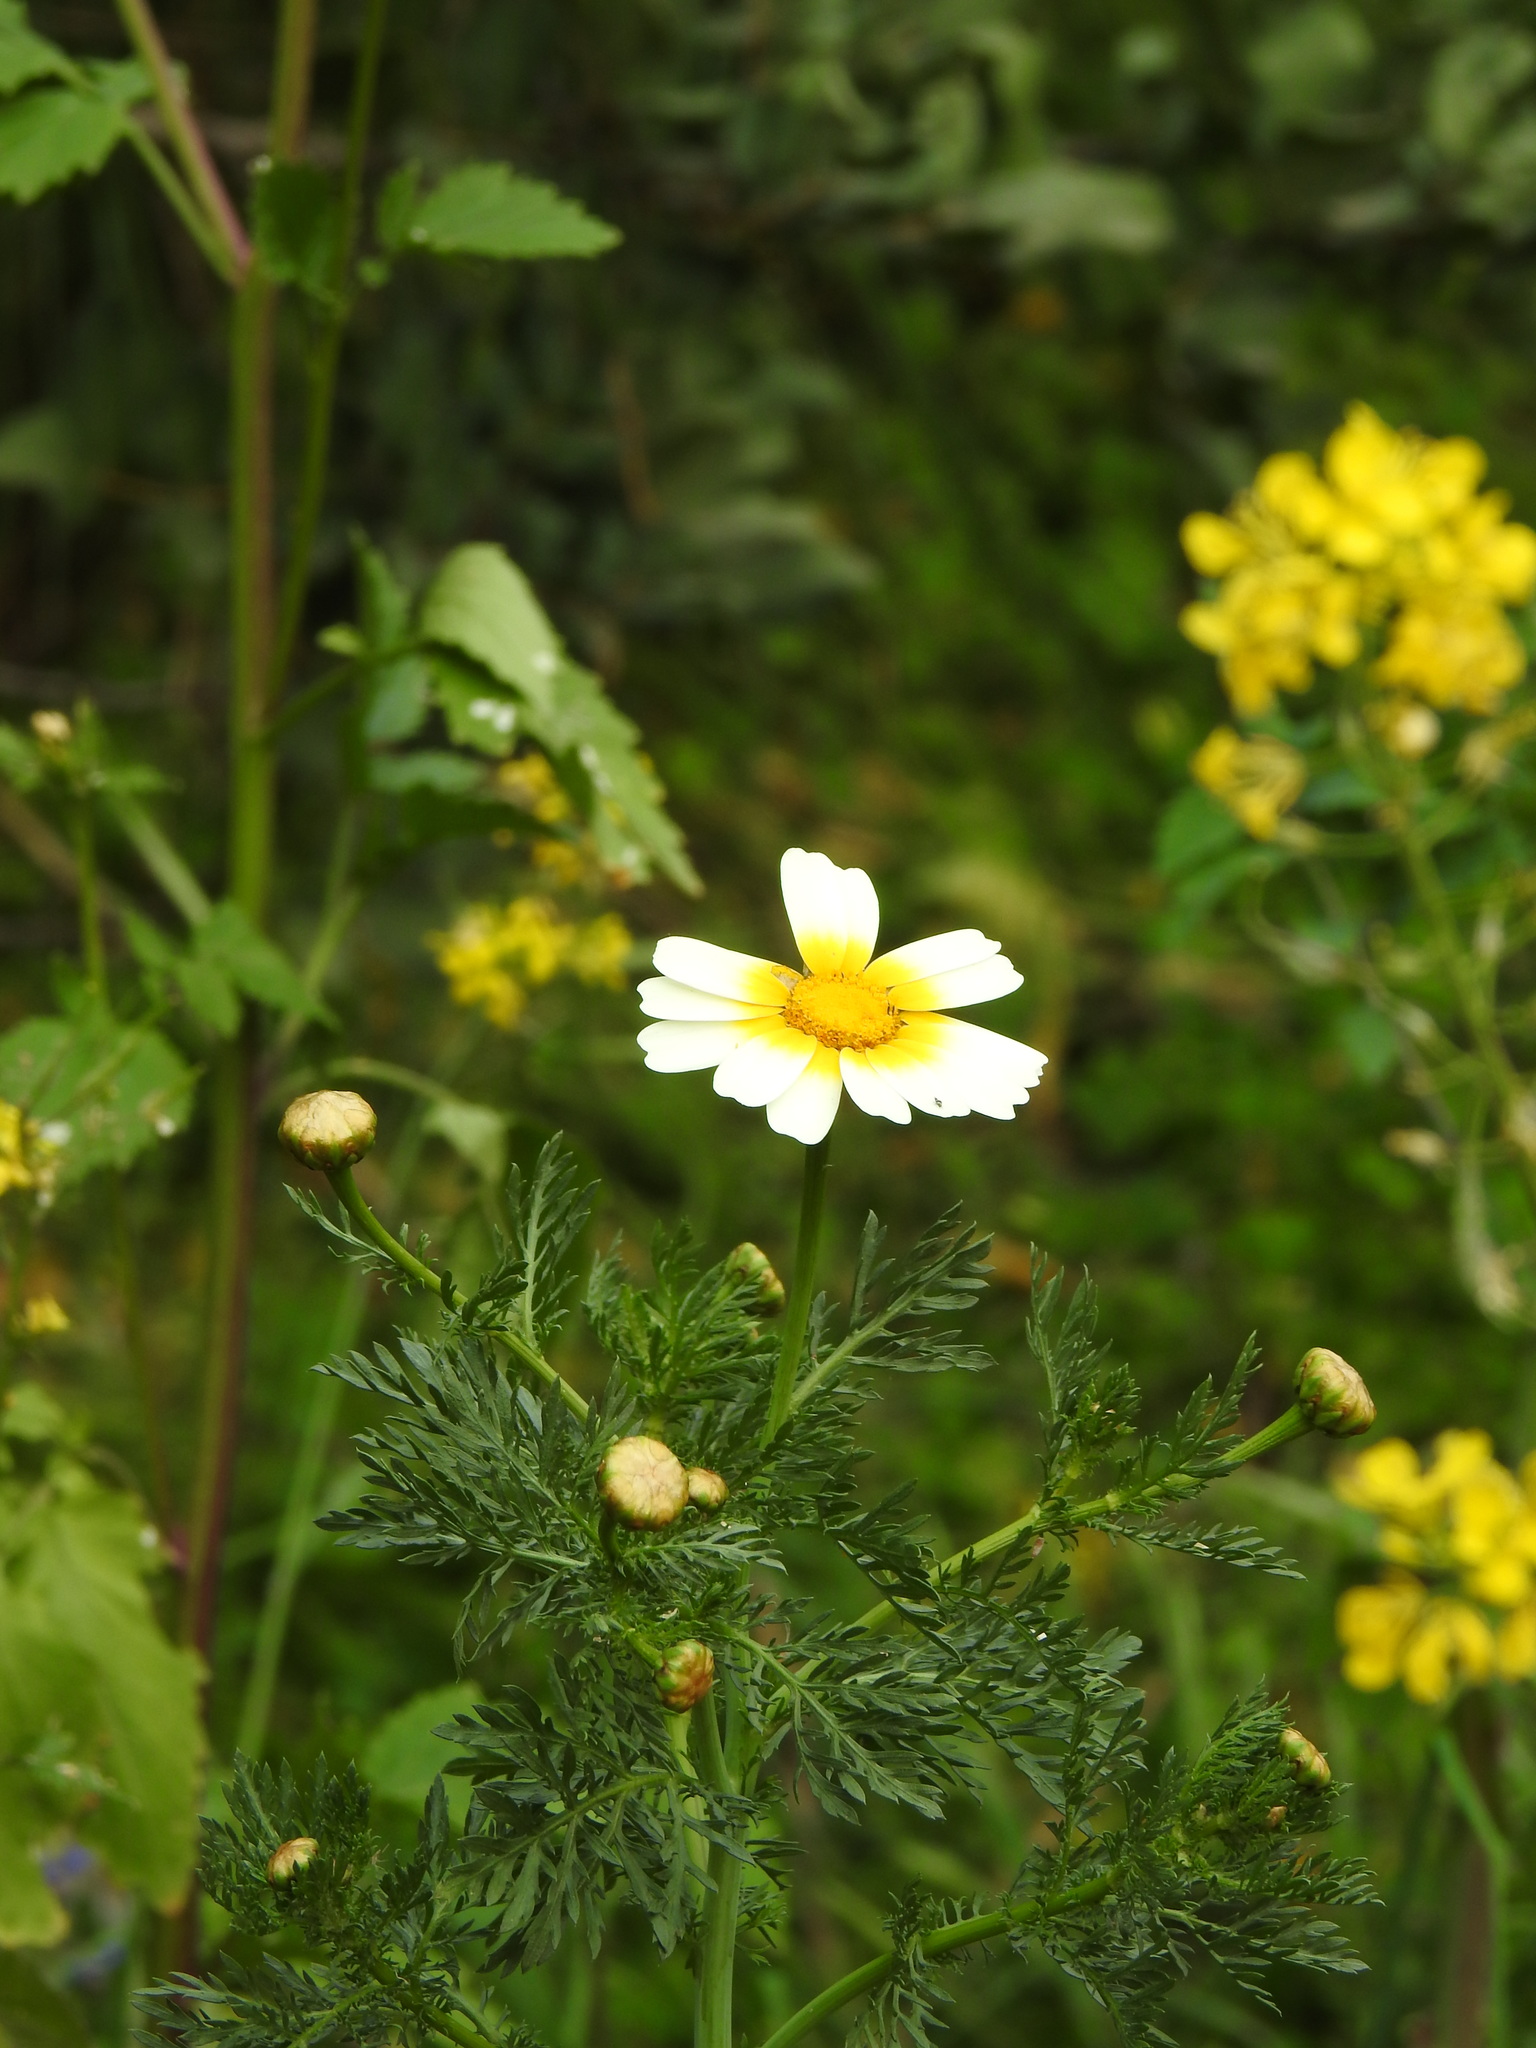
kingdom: Plantae
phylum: Tracheophyta
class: Magnoliopsida
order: Asterales
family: Asteraceae
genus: Glebionis
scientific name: Glebionis coronaria
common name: Crowndaisy
